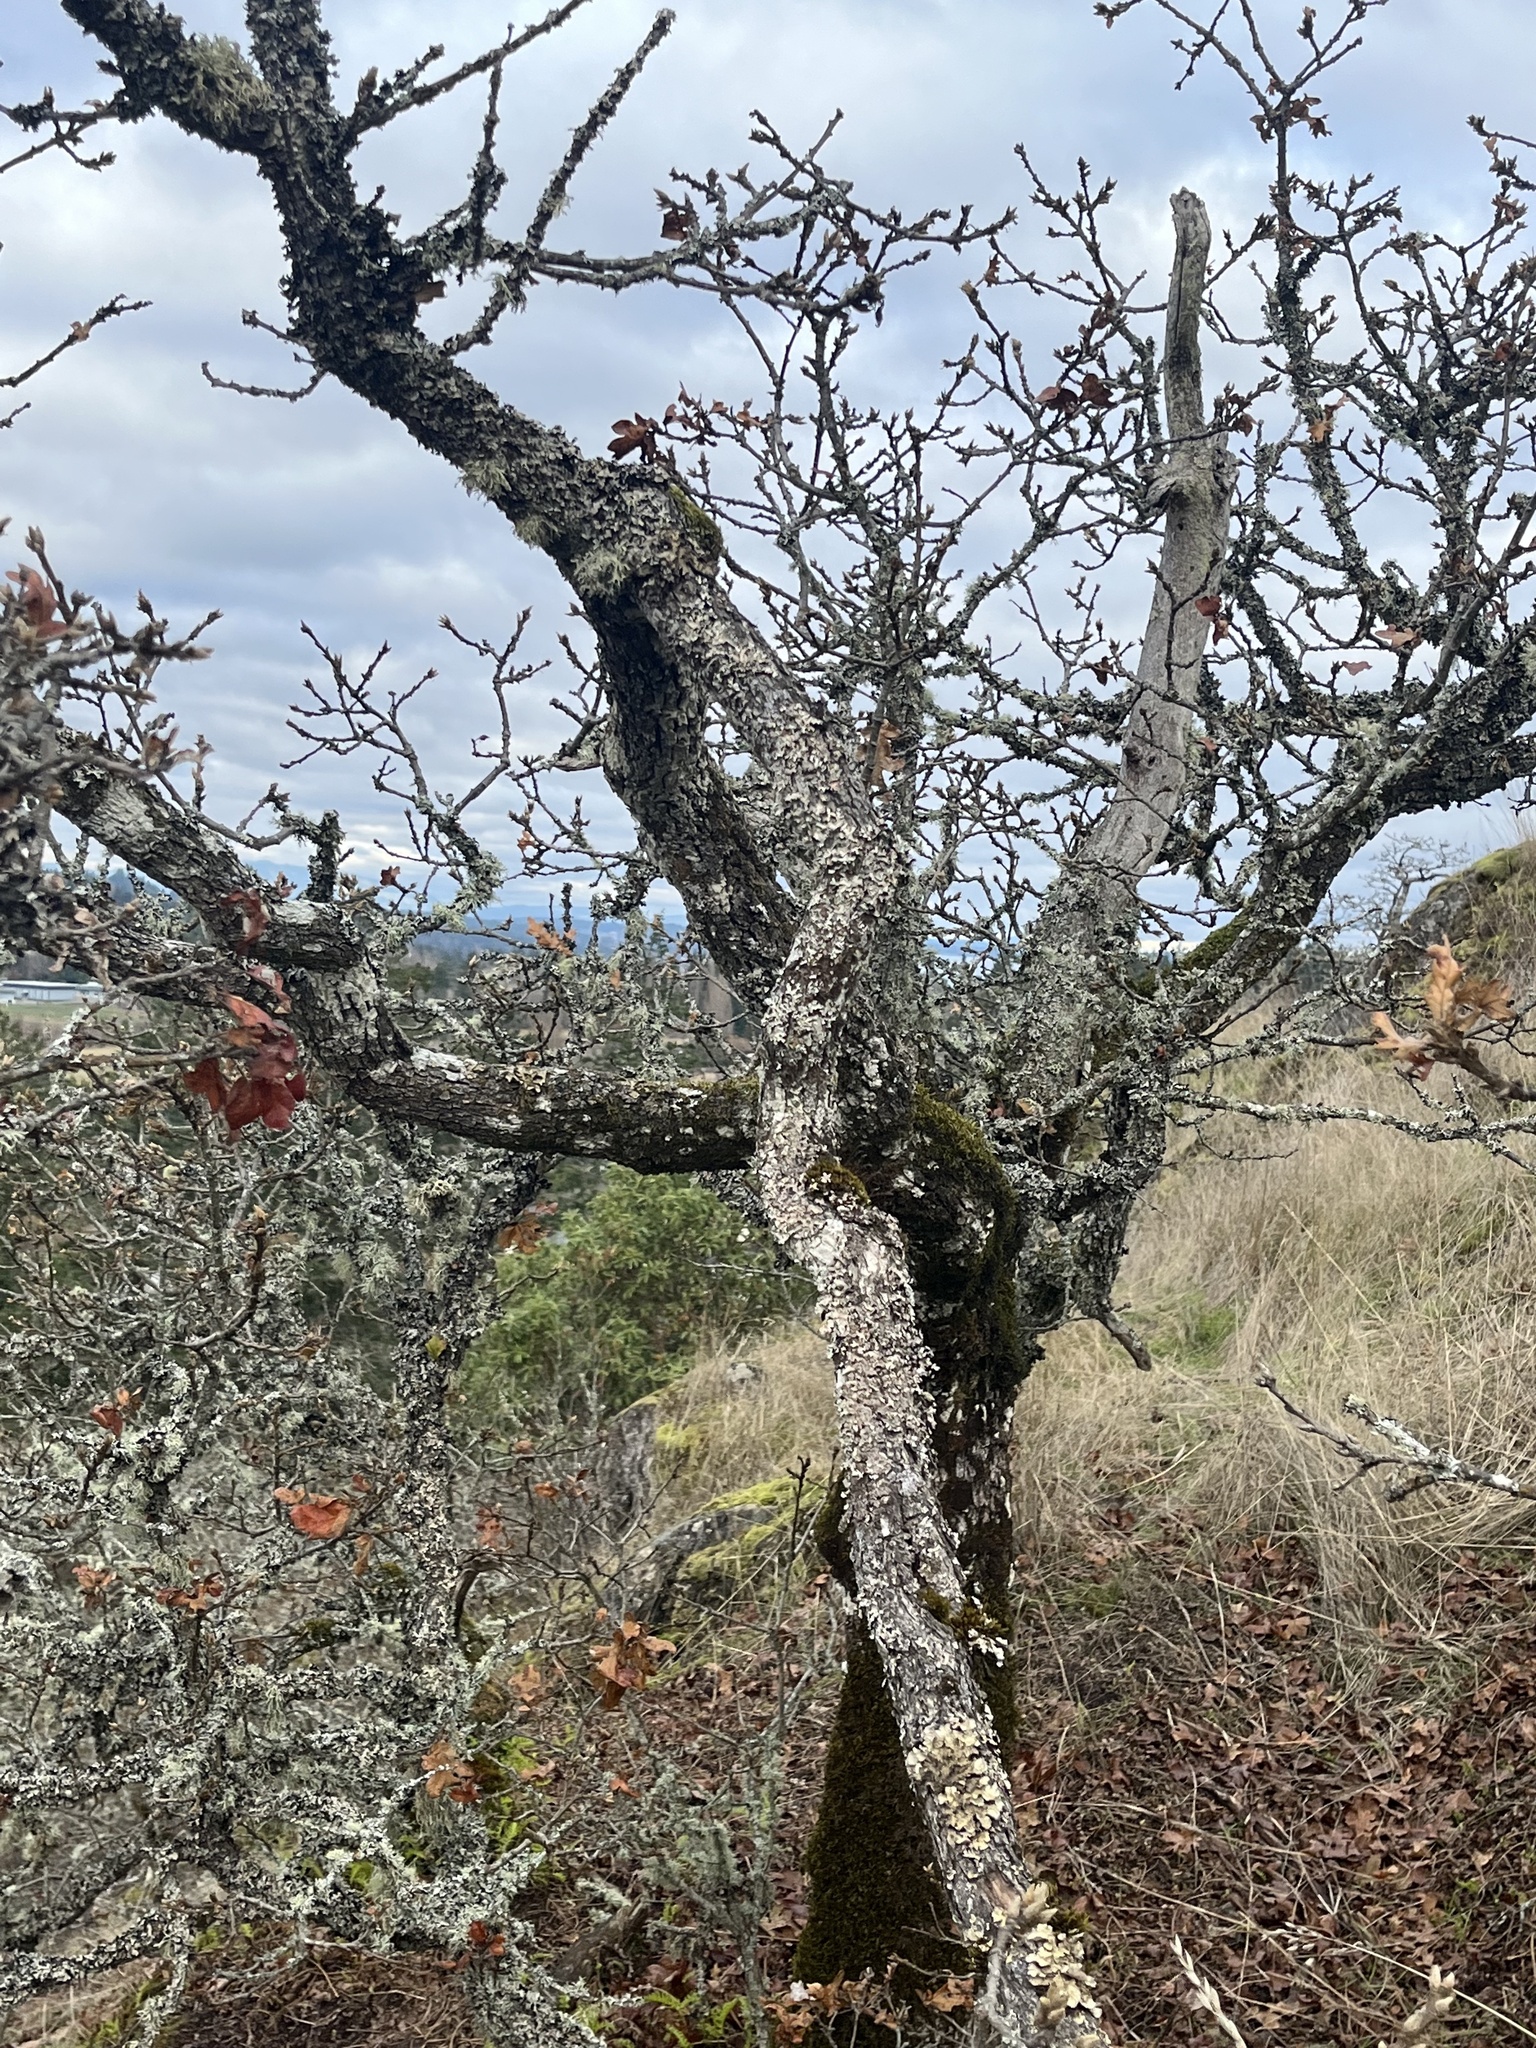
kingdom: Plantae
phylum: Tracheophyta
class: Magnoliopsida
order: Fagales
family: Fagaceae
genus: Quercus
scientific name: Quercus garryana
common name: Garry oak
